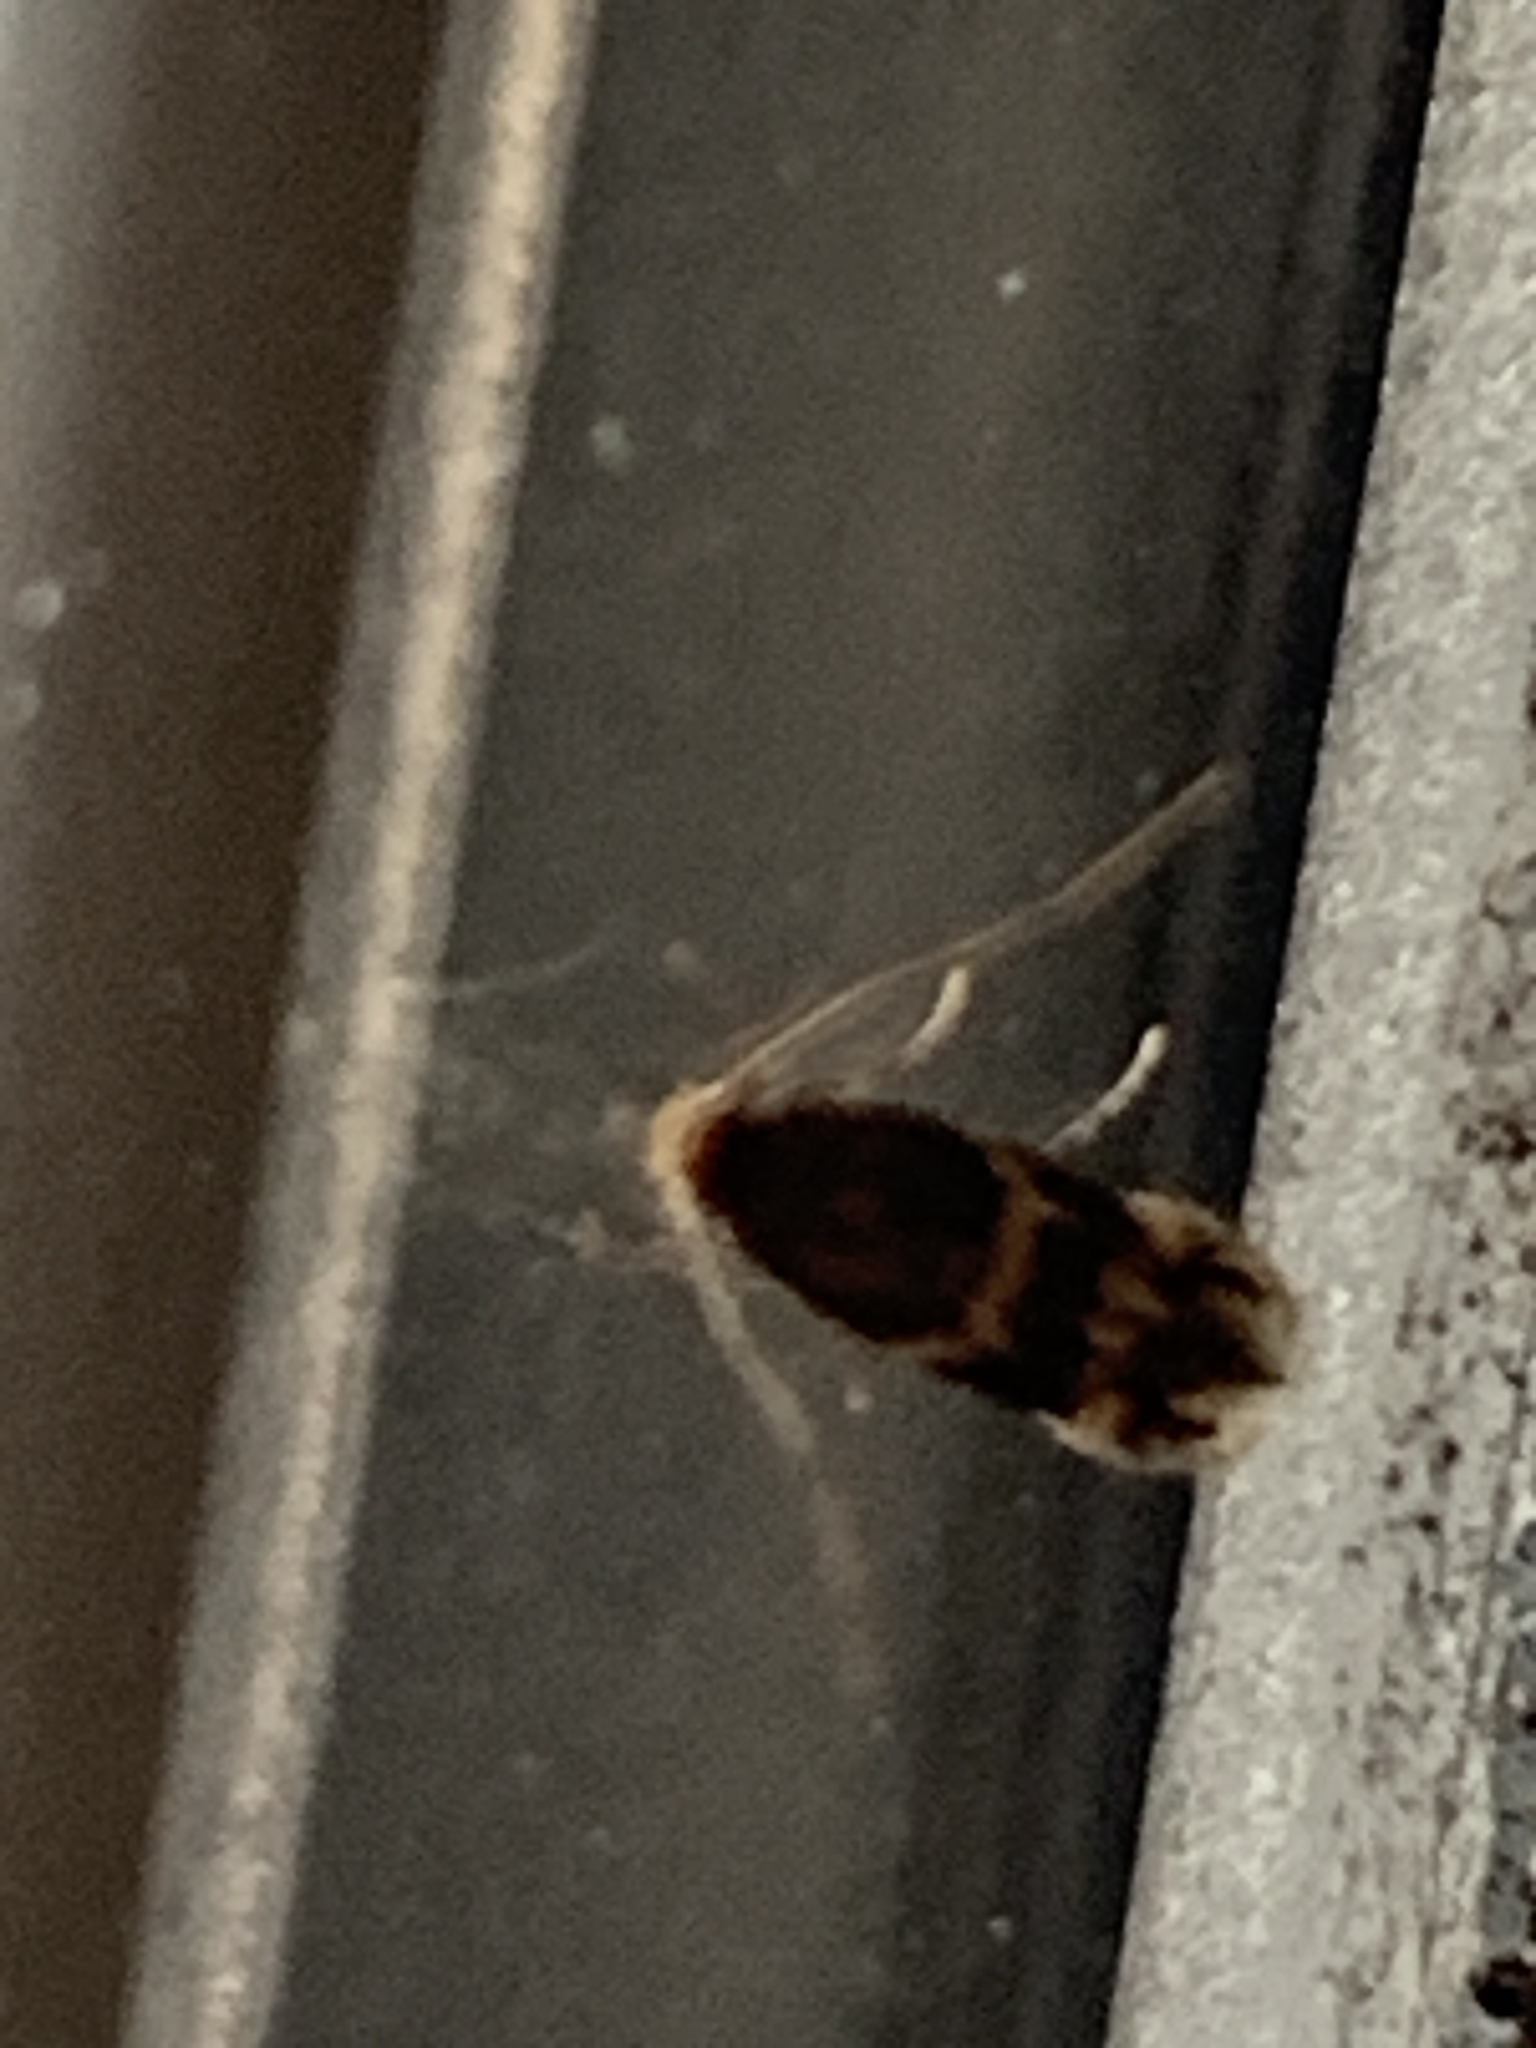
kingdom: Animalia
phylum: Arthropoda
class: Insecta
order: Lepidoptera
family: Tineidae
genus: Oinophila
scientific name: Oinophila v-flava
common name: Yellow v moth
